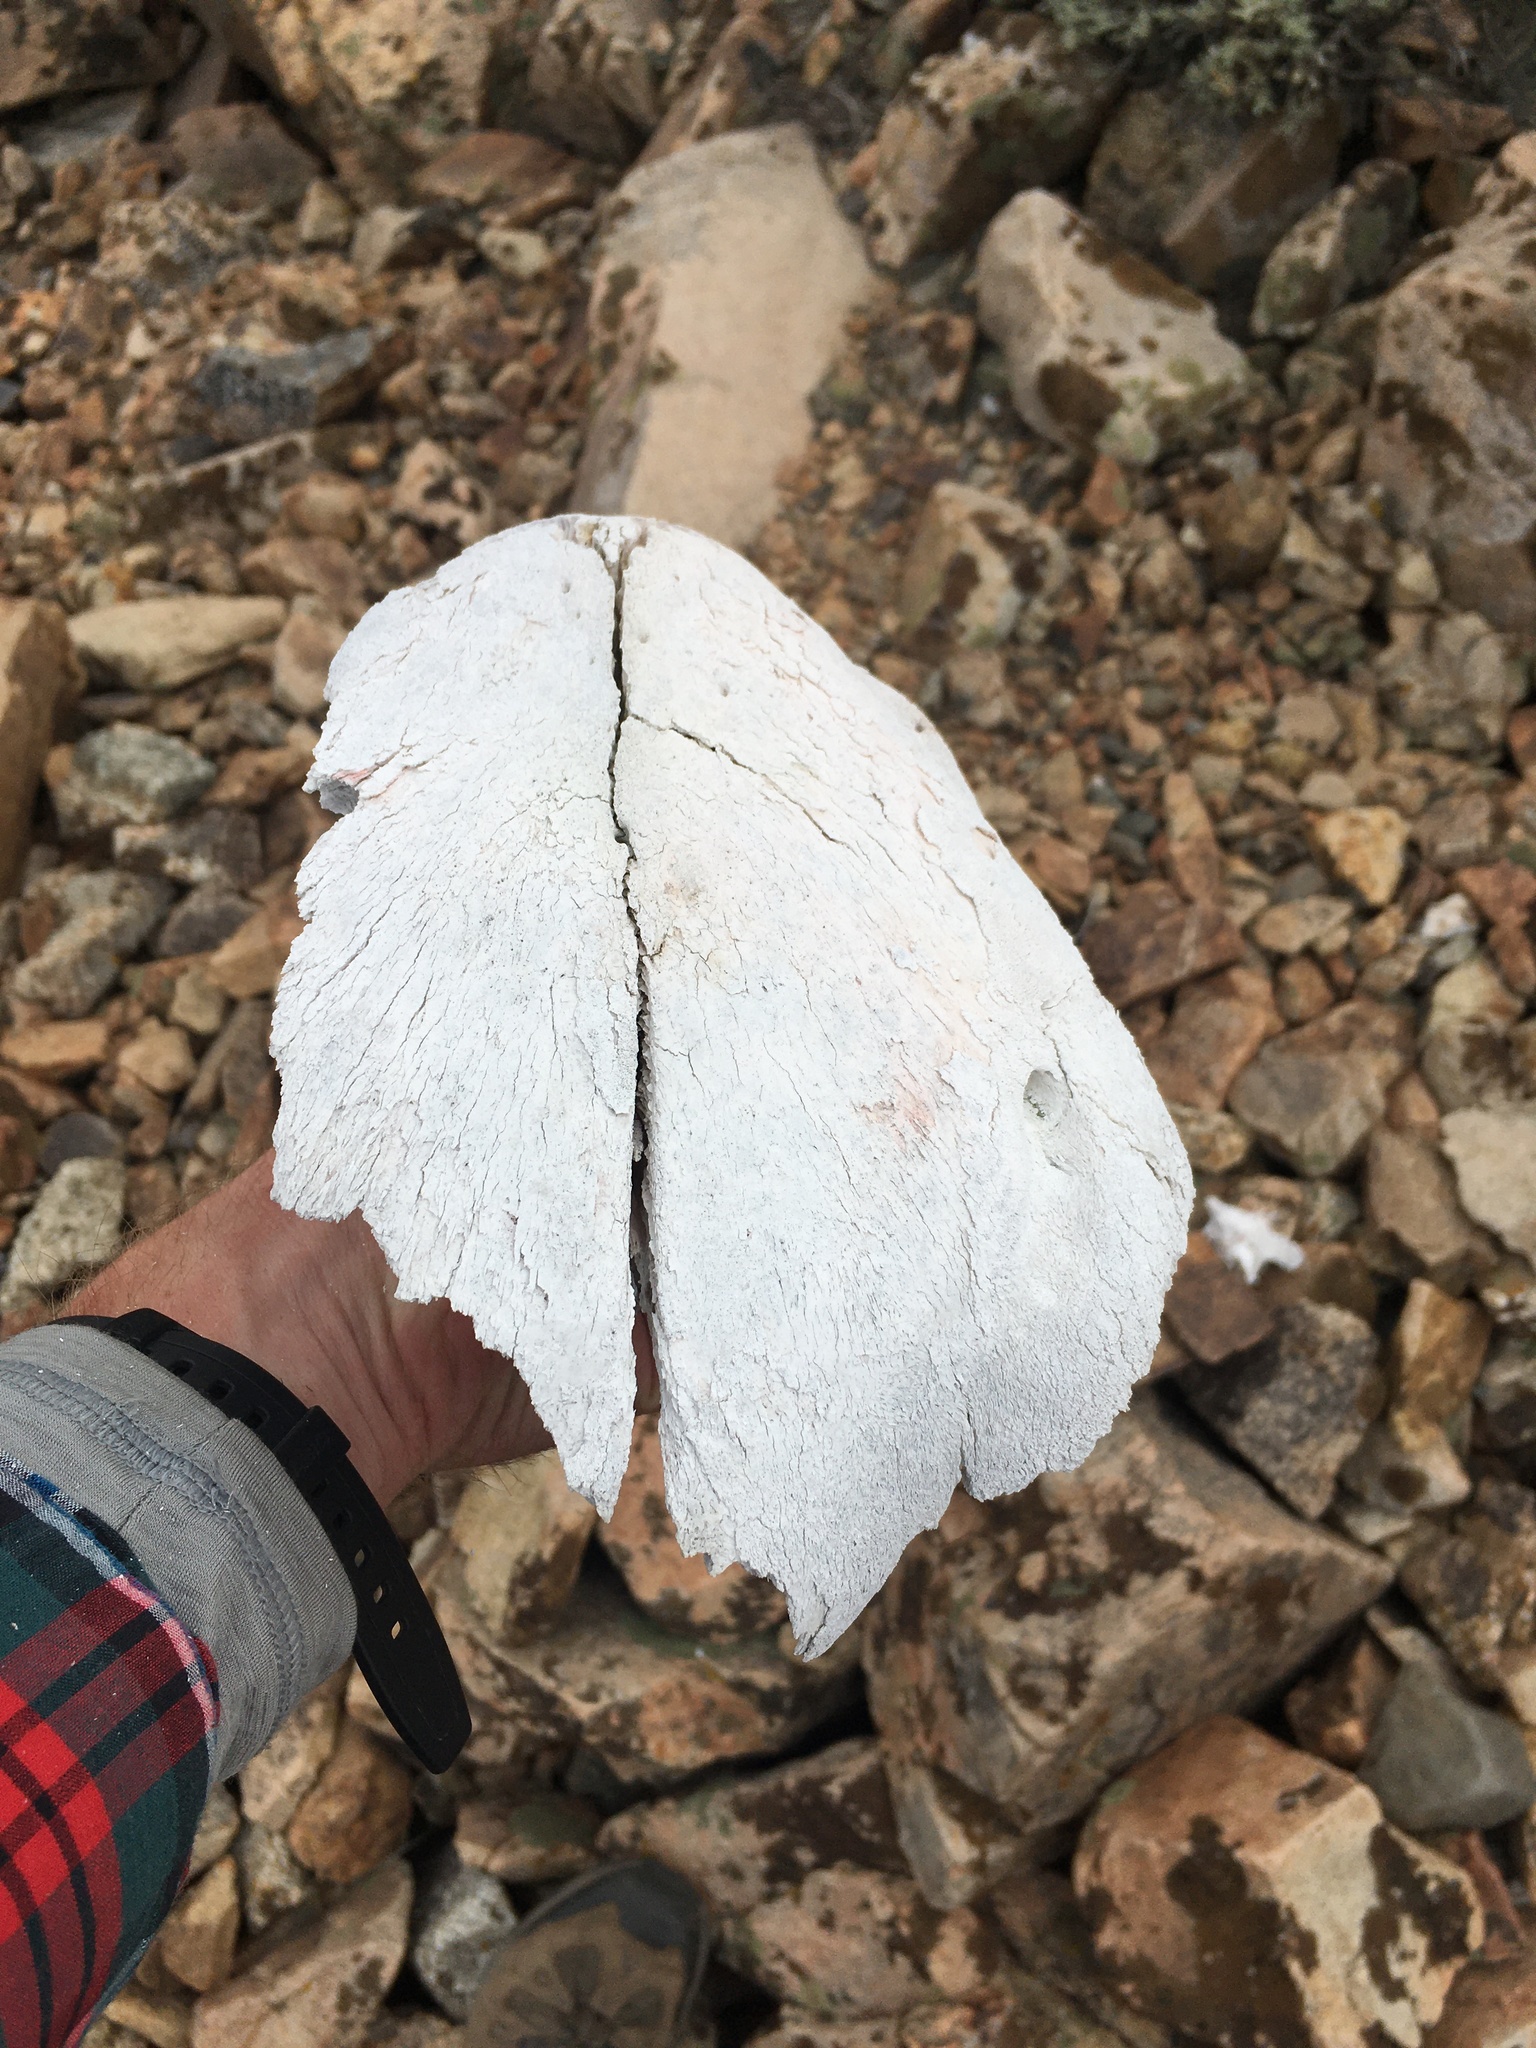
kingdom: Animalia
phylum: Chordata
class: Mammalia
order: Artiodactyla
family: Bovidae
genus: Bos
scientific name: Bos taurus
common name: Domesticated cattle
